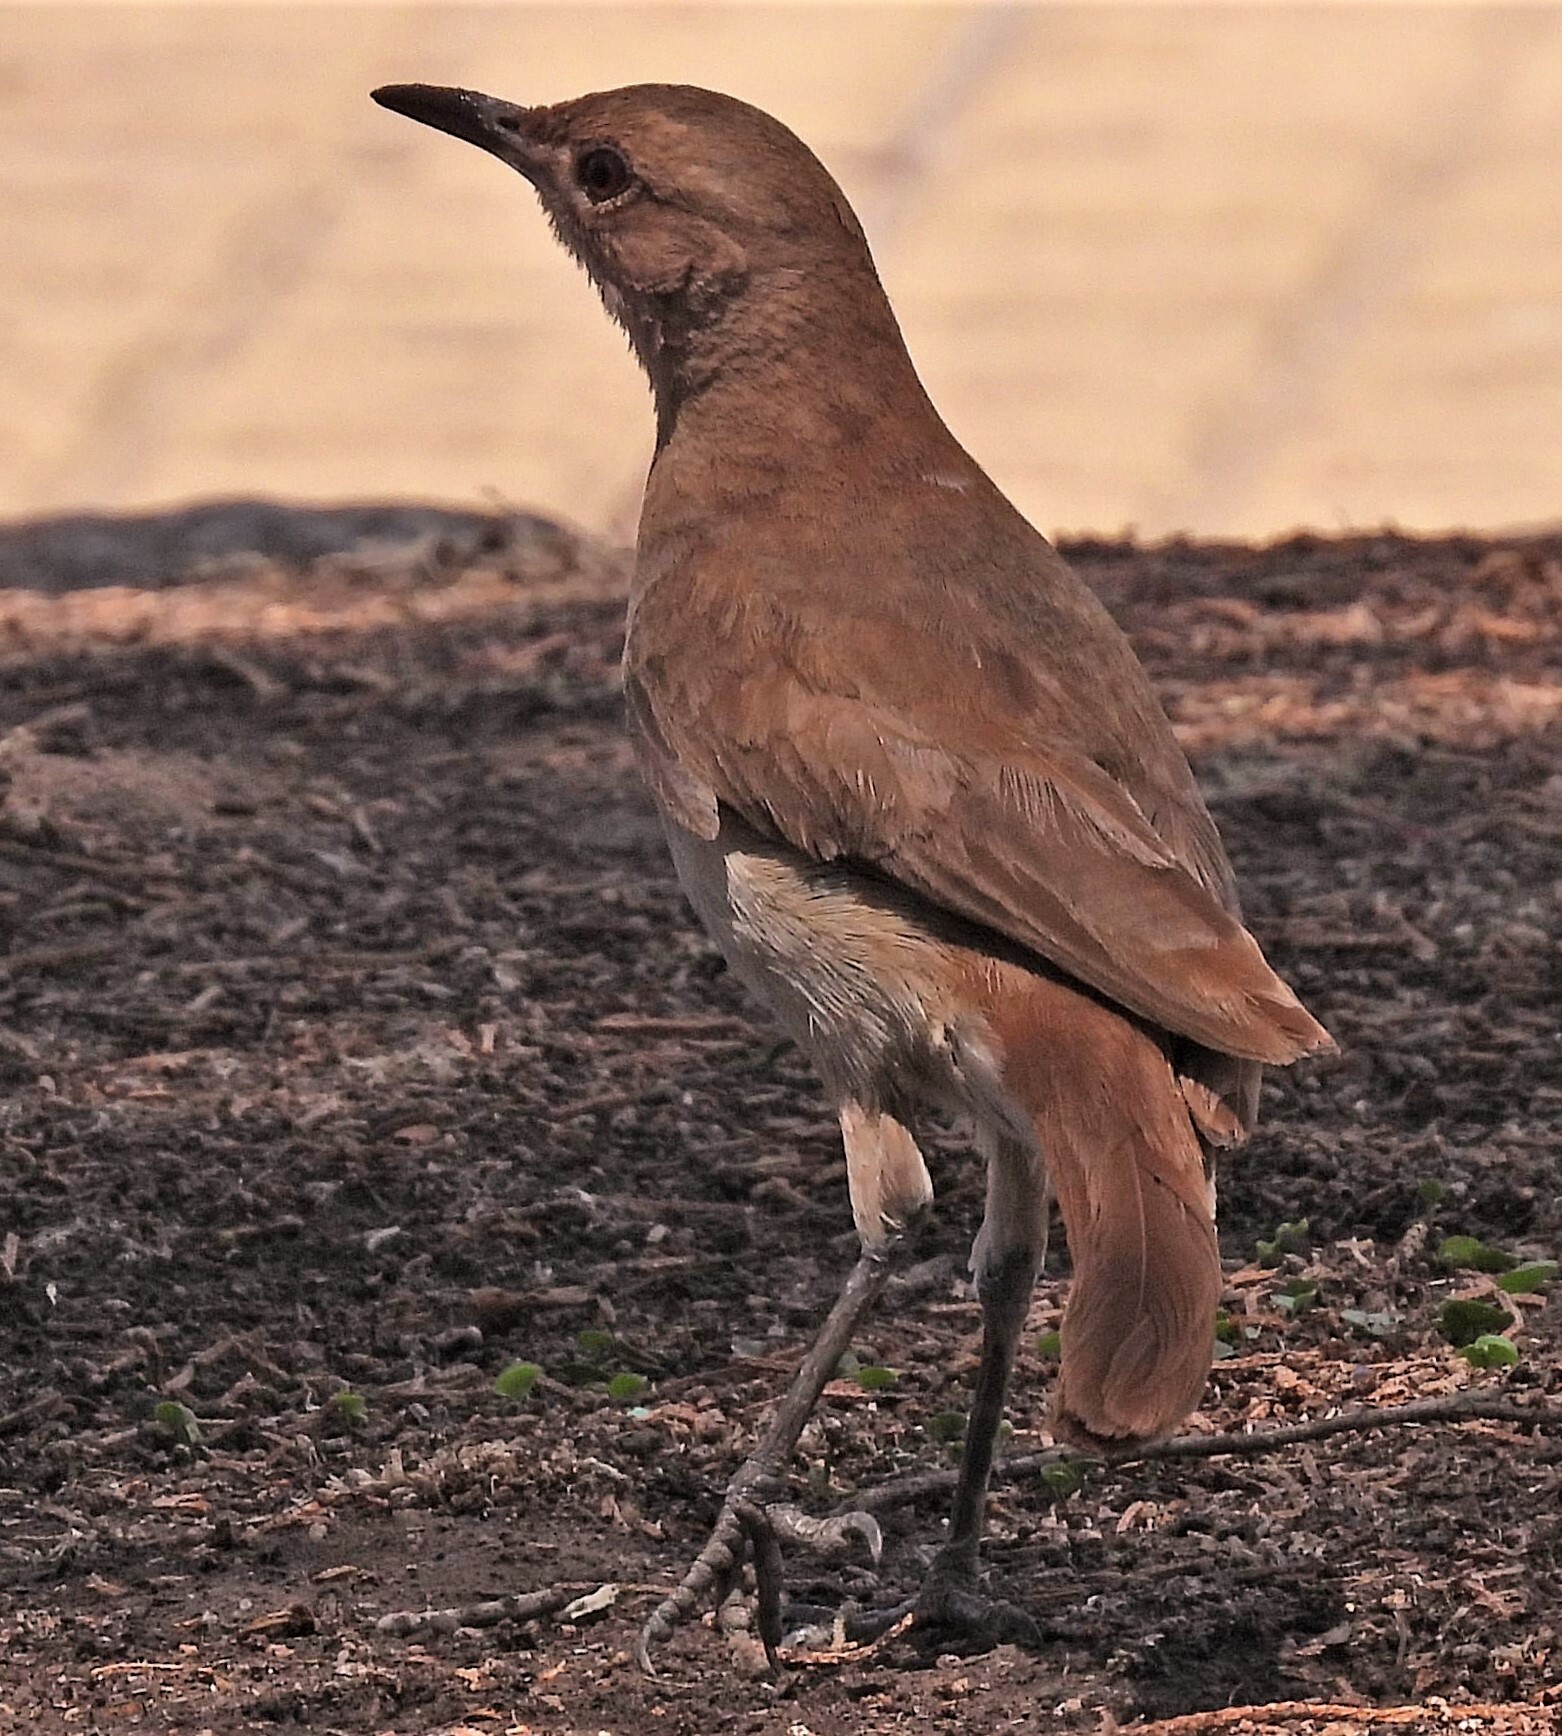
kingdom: Animalia
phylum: Chordata
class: Aves
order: Passeriformes
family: Furnariidae
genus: Furnarius
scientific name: Furnarius rufus
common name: Rufous hornero
